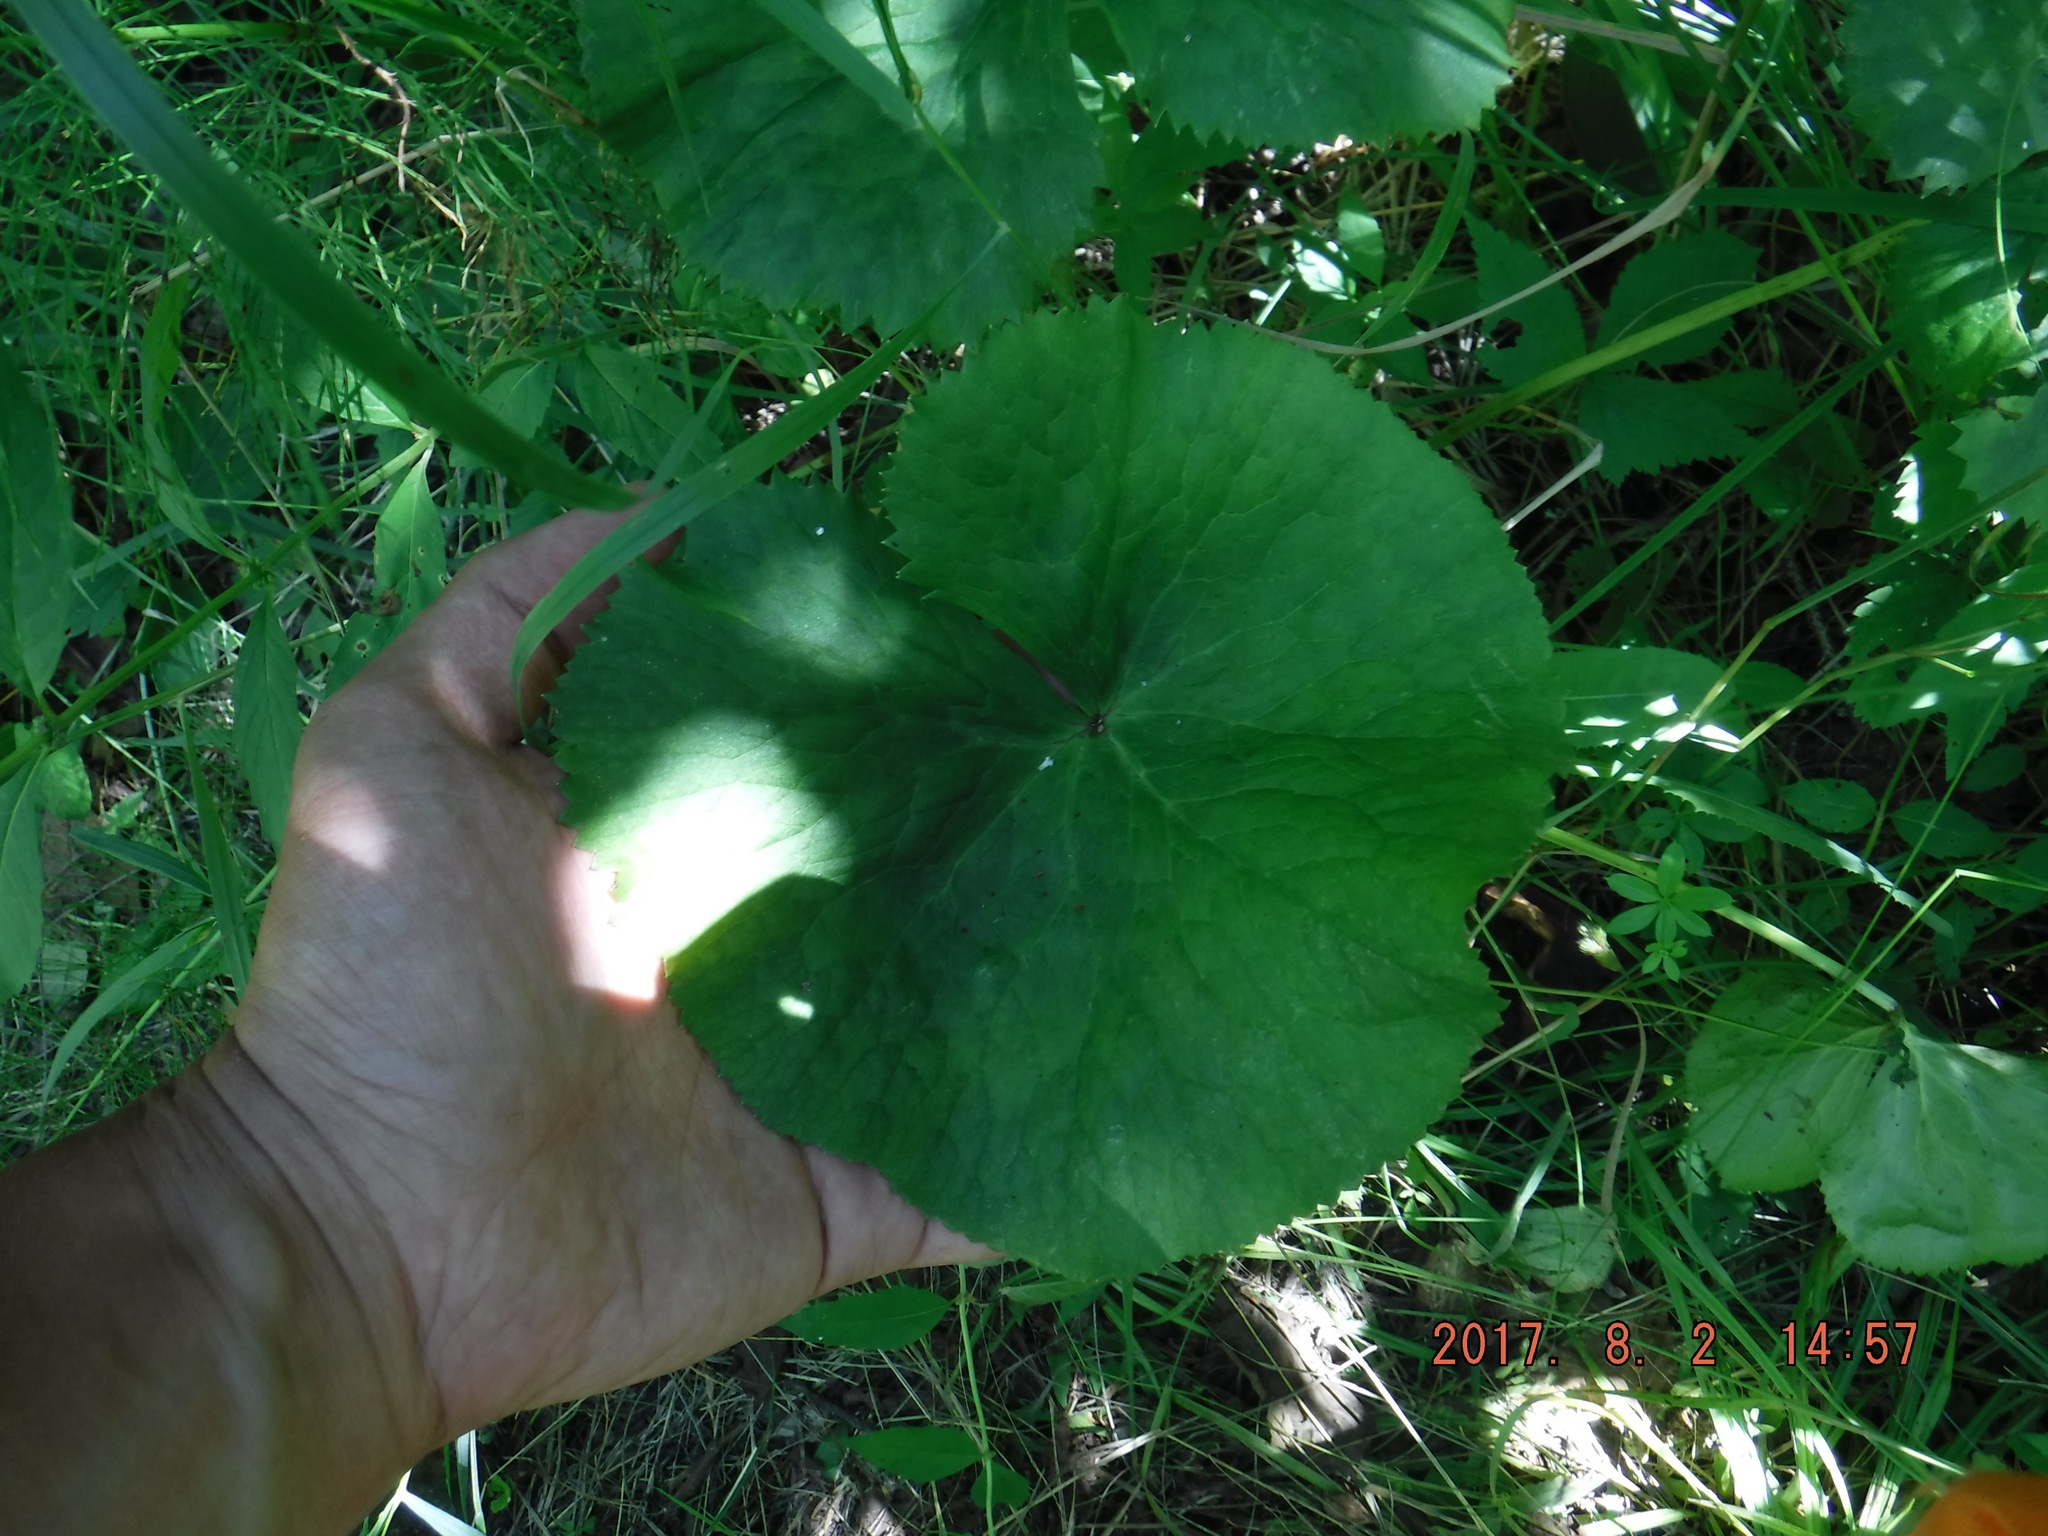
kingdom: Plantae
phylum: Tracheophyta
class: Magnoliopsida
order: Ranunculales
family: Ranunculaceae
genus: Caltha
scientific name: Caltha palustris
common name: Marsh marigold
